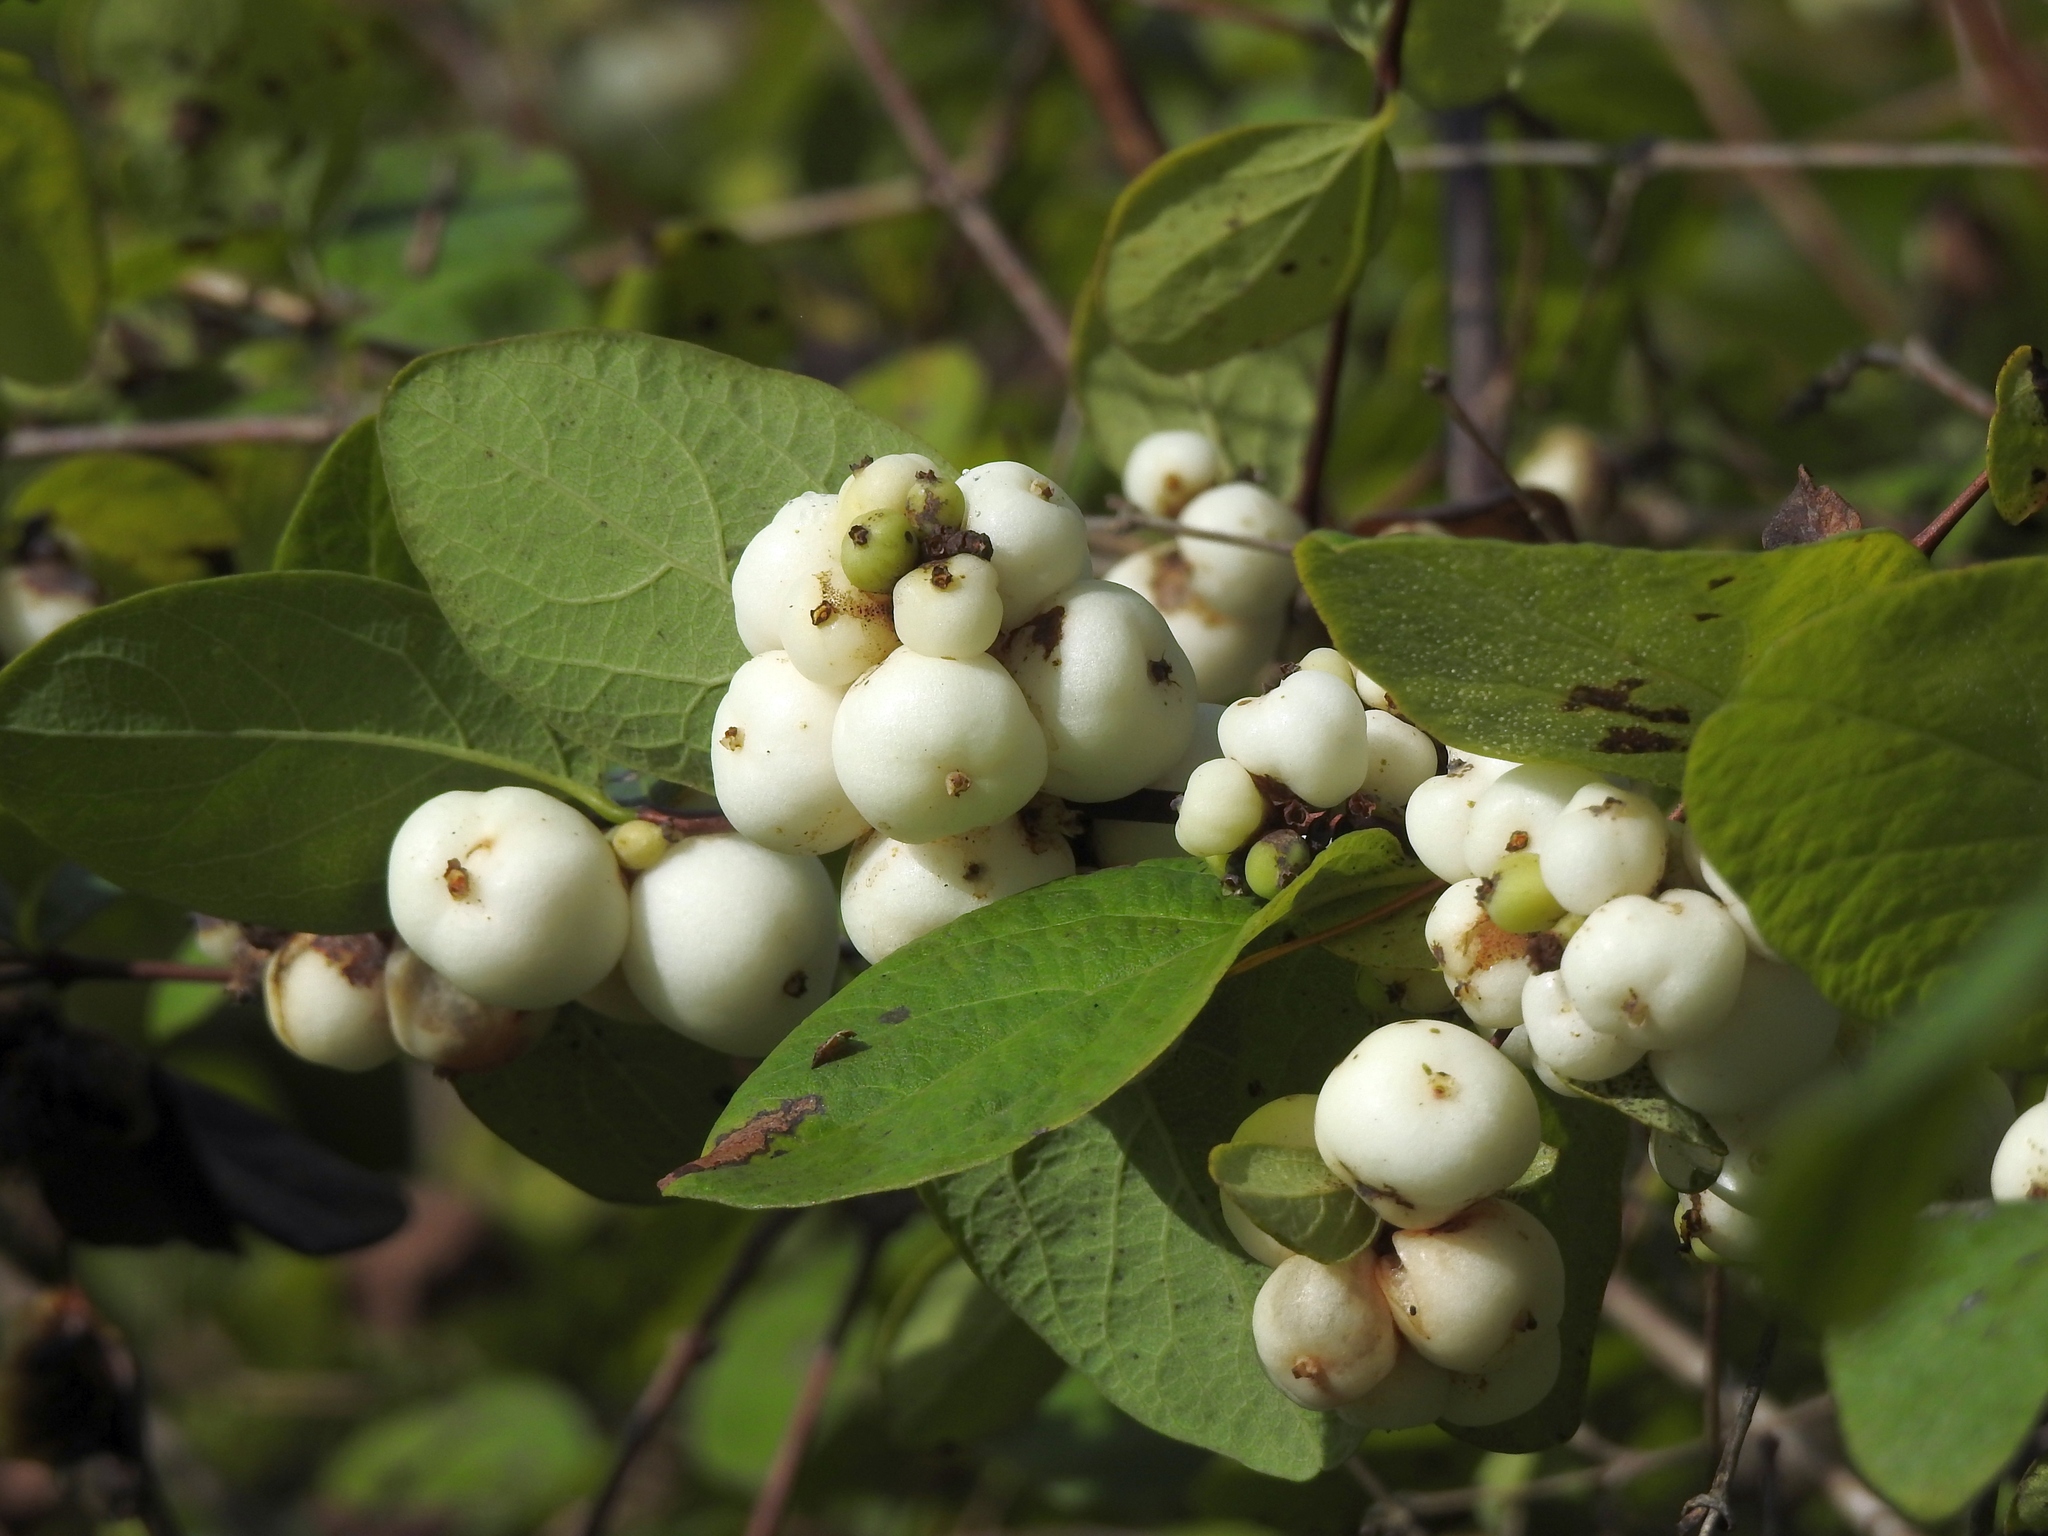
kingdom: Plantae
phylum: Tracheophyta
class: Magnoliopsida
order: Dipsacales
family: Caprifoliaceae
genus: Symphoricarpos
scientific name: Symphoricarpos albus
